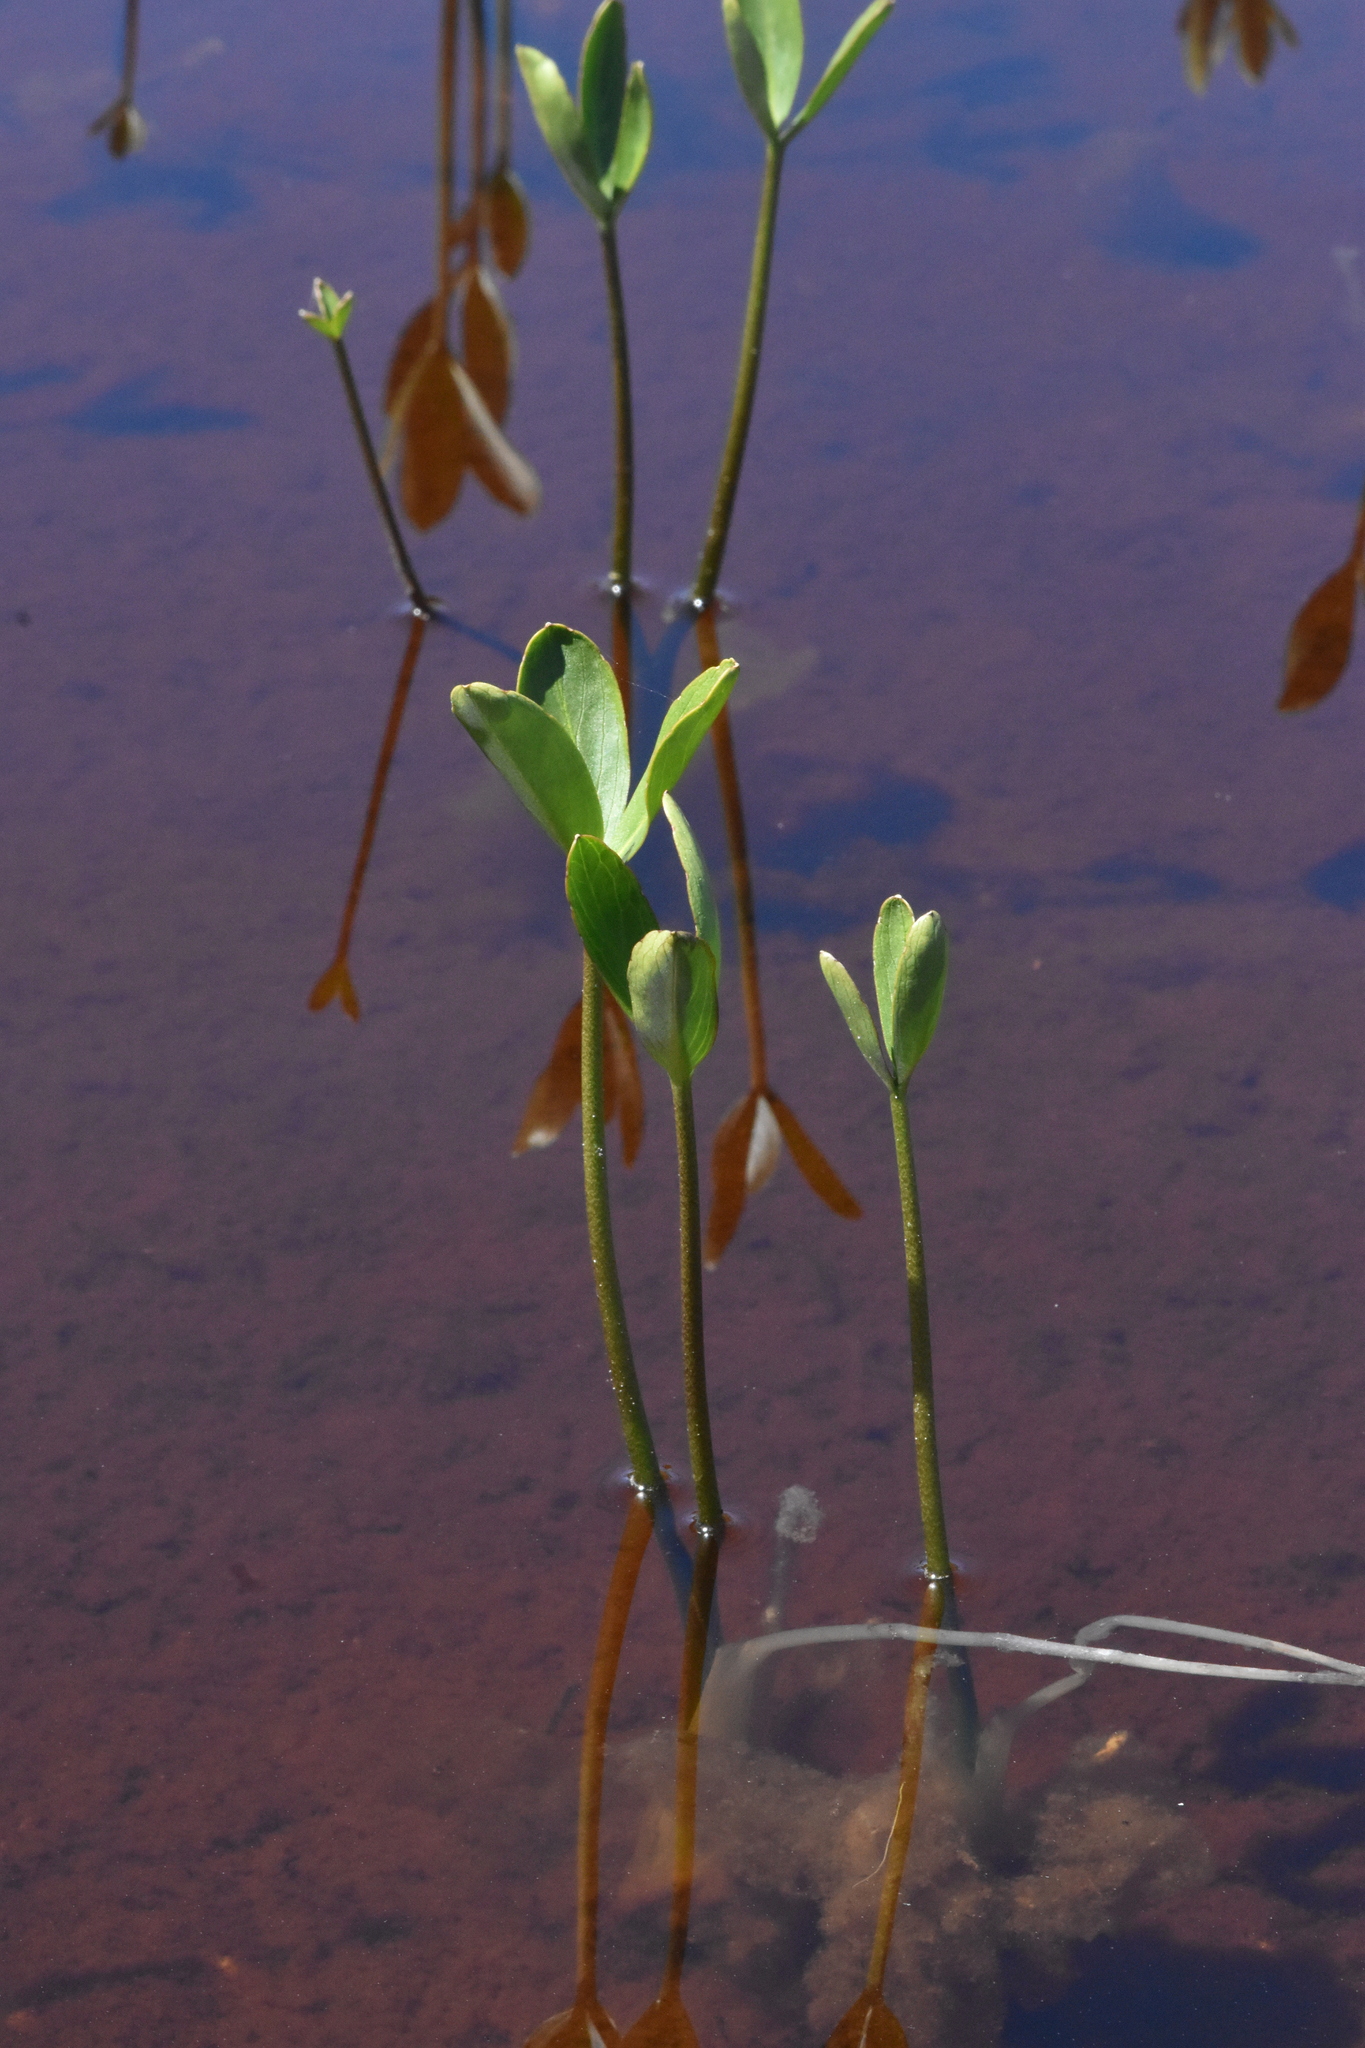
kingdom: Plantae
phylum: Tracheophyta
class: Magnoliopsida
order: Asterales
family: Menyanthaceae
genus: Menyanthes
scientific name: Menyanthes trifoliata
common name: Bogbean
